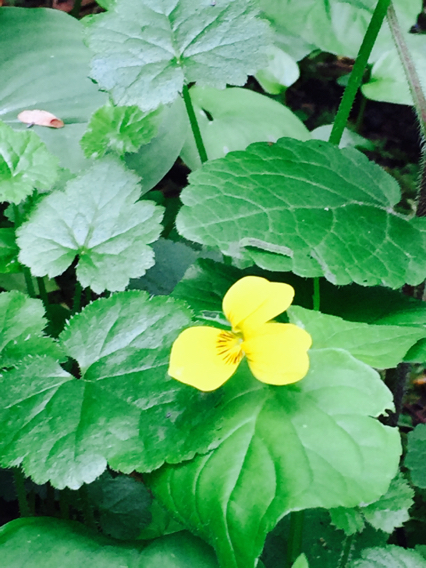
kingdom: Plantae
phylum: Tracheophyta
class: Magnoliopsida
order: Malpighiales
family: Violaceae
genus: Viola
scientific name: Viola glabella
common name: Stream violet
